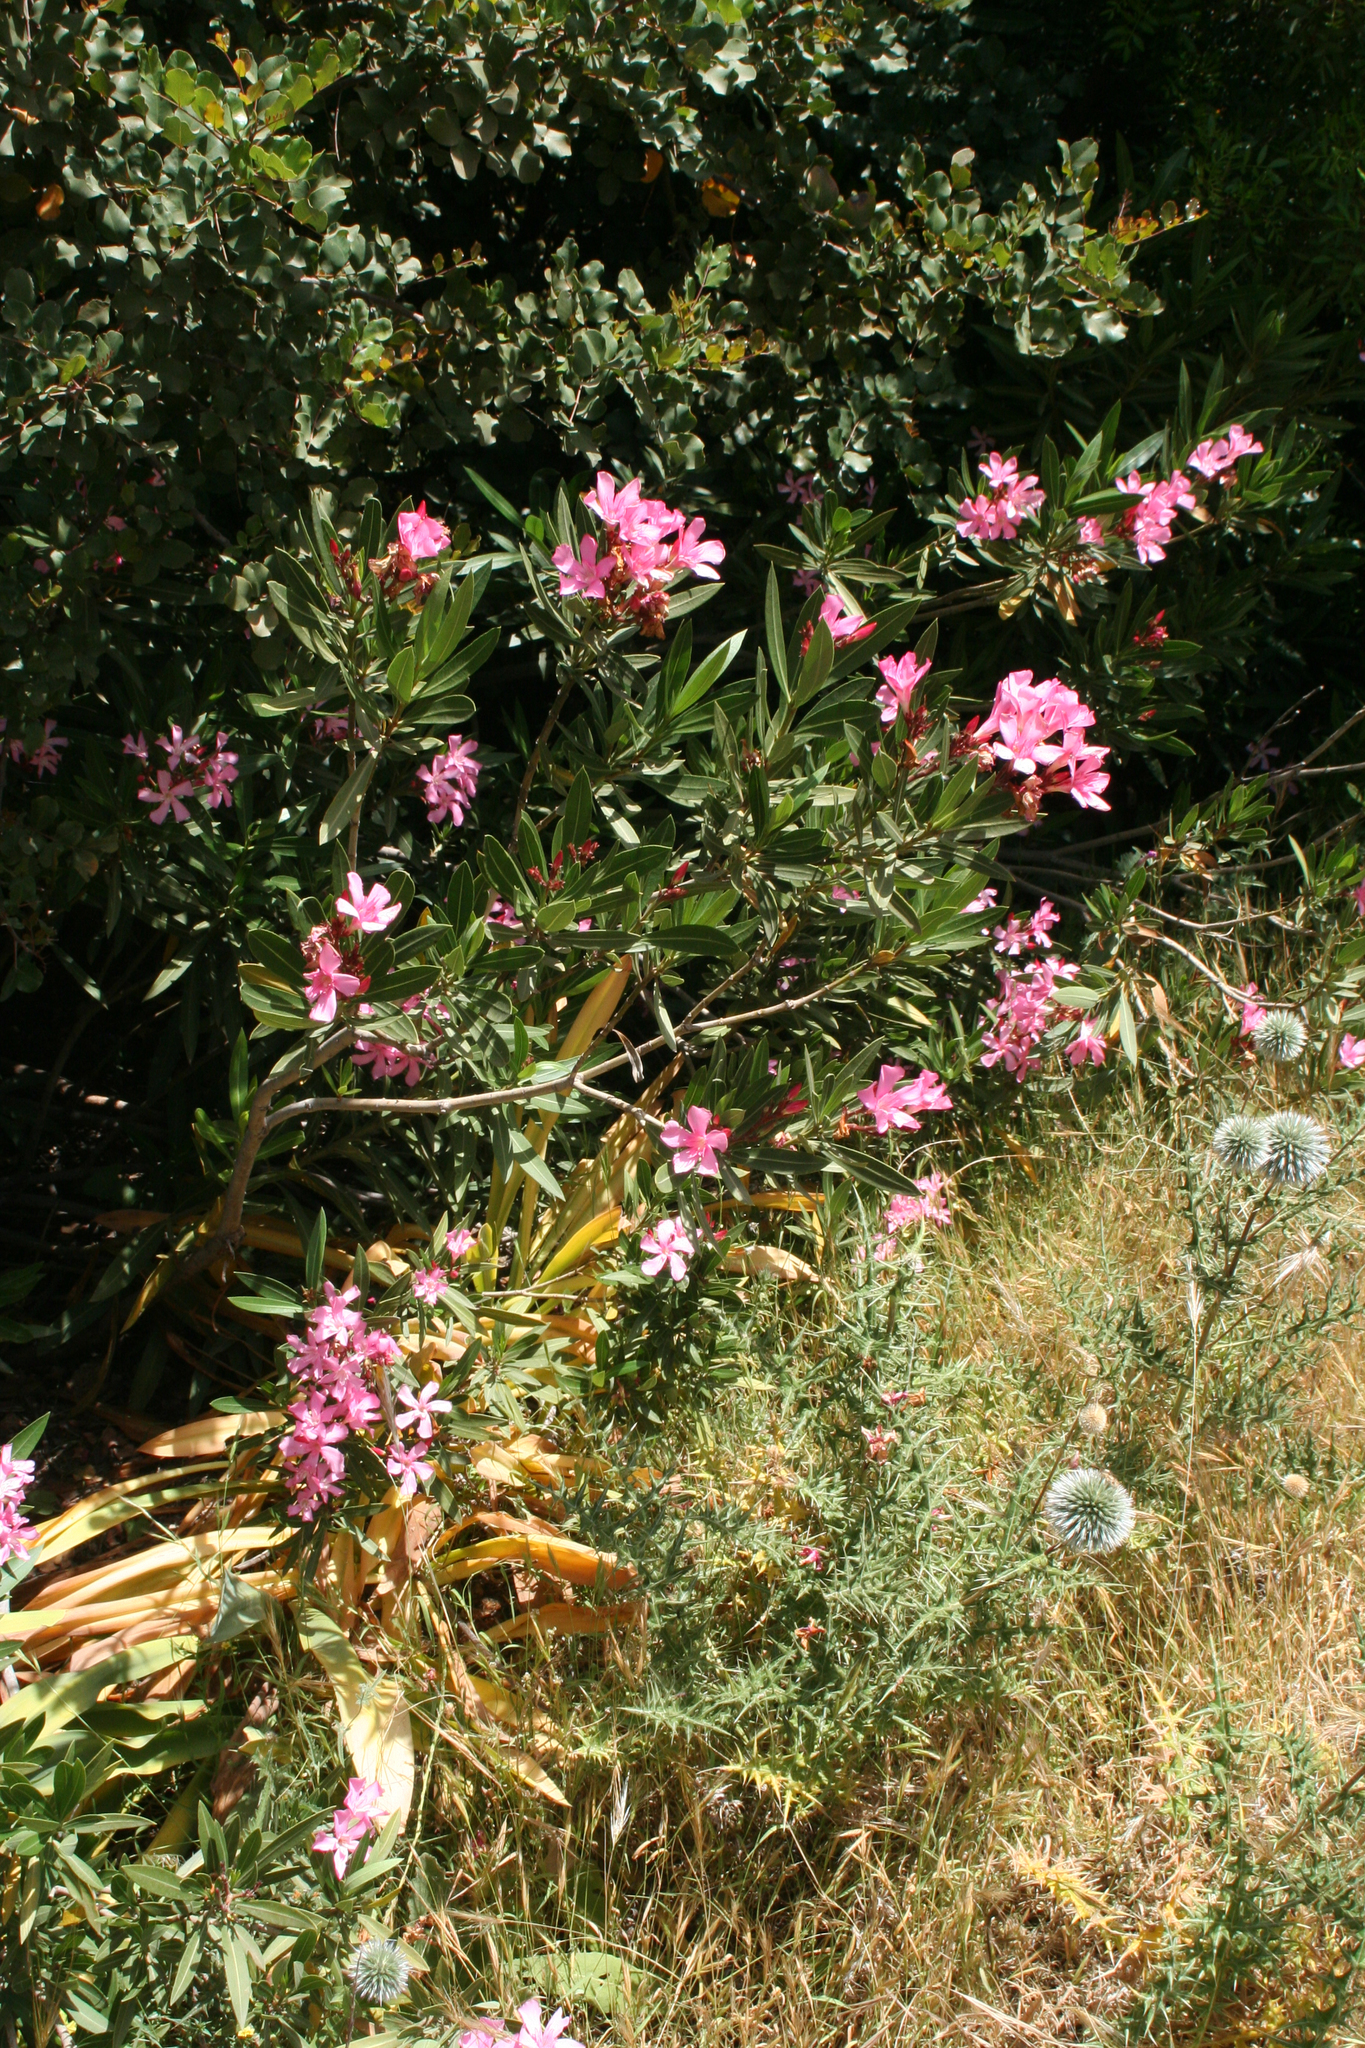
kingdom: Plantae
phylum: Tracheophyta
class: Magnoliopsida
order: Gentianales
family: Apocynaceae
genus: Nerium
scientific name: Nerium oleander
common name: Oleander
